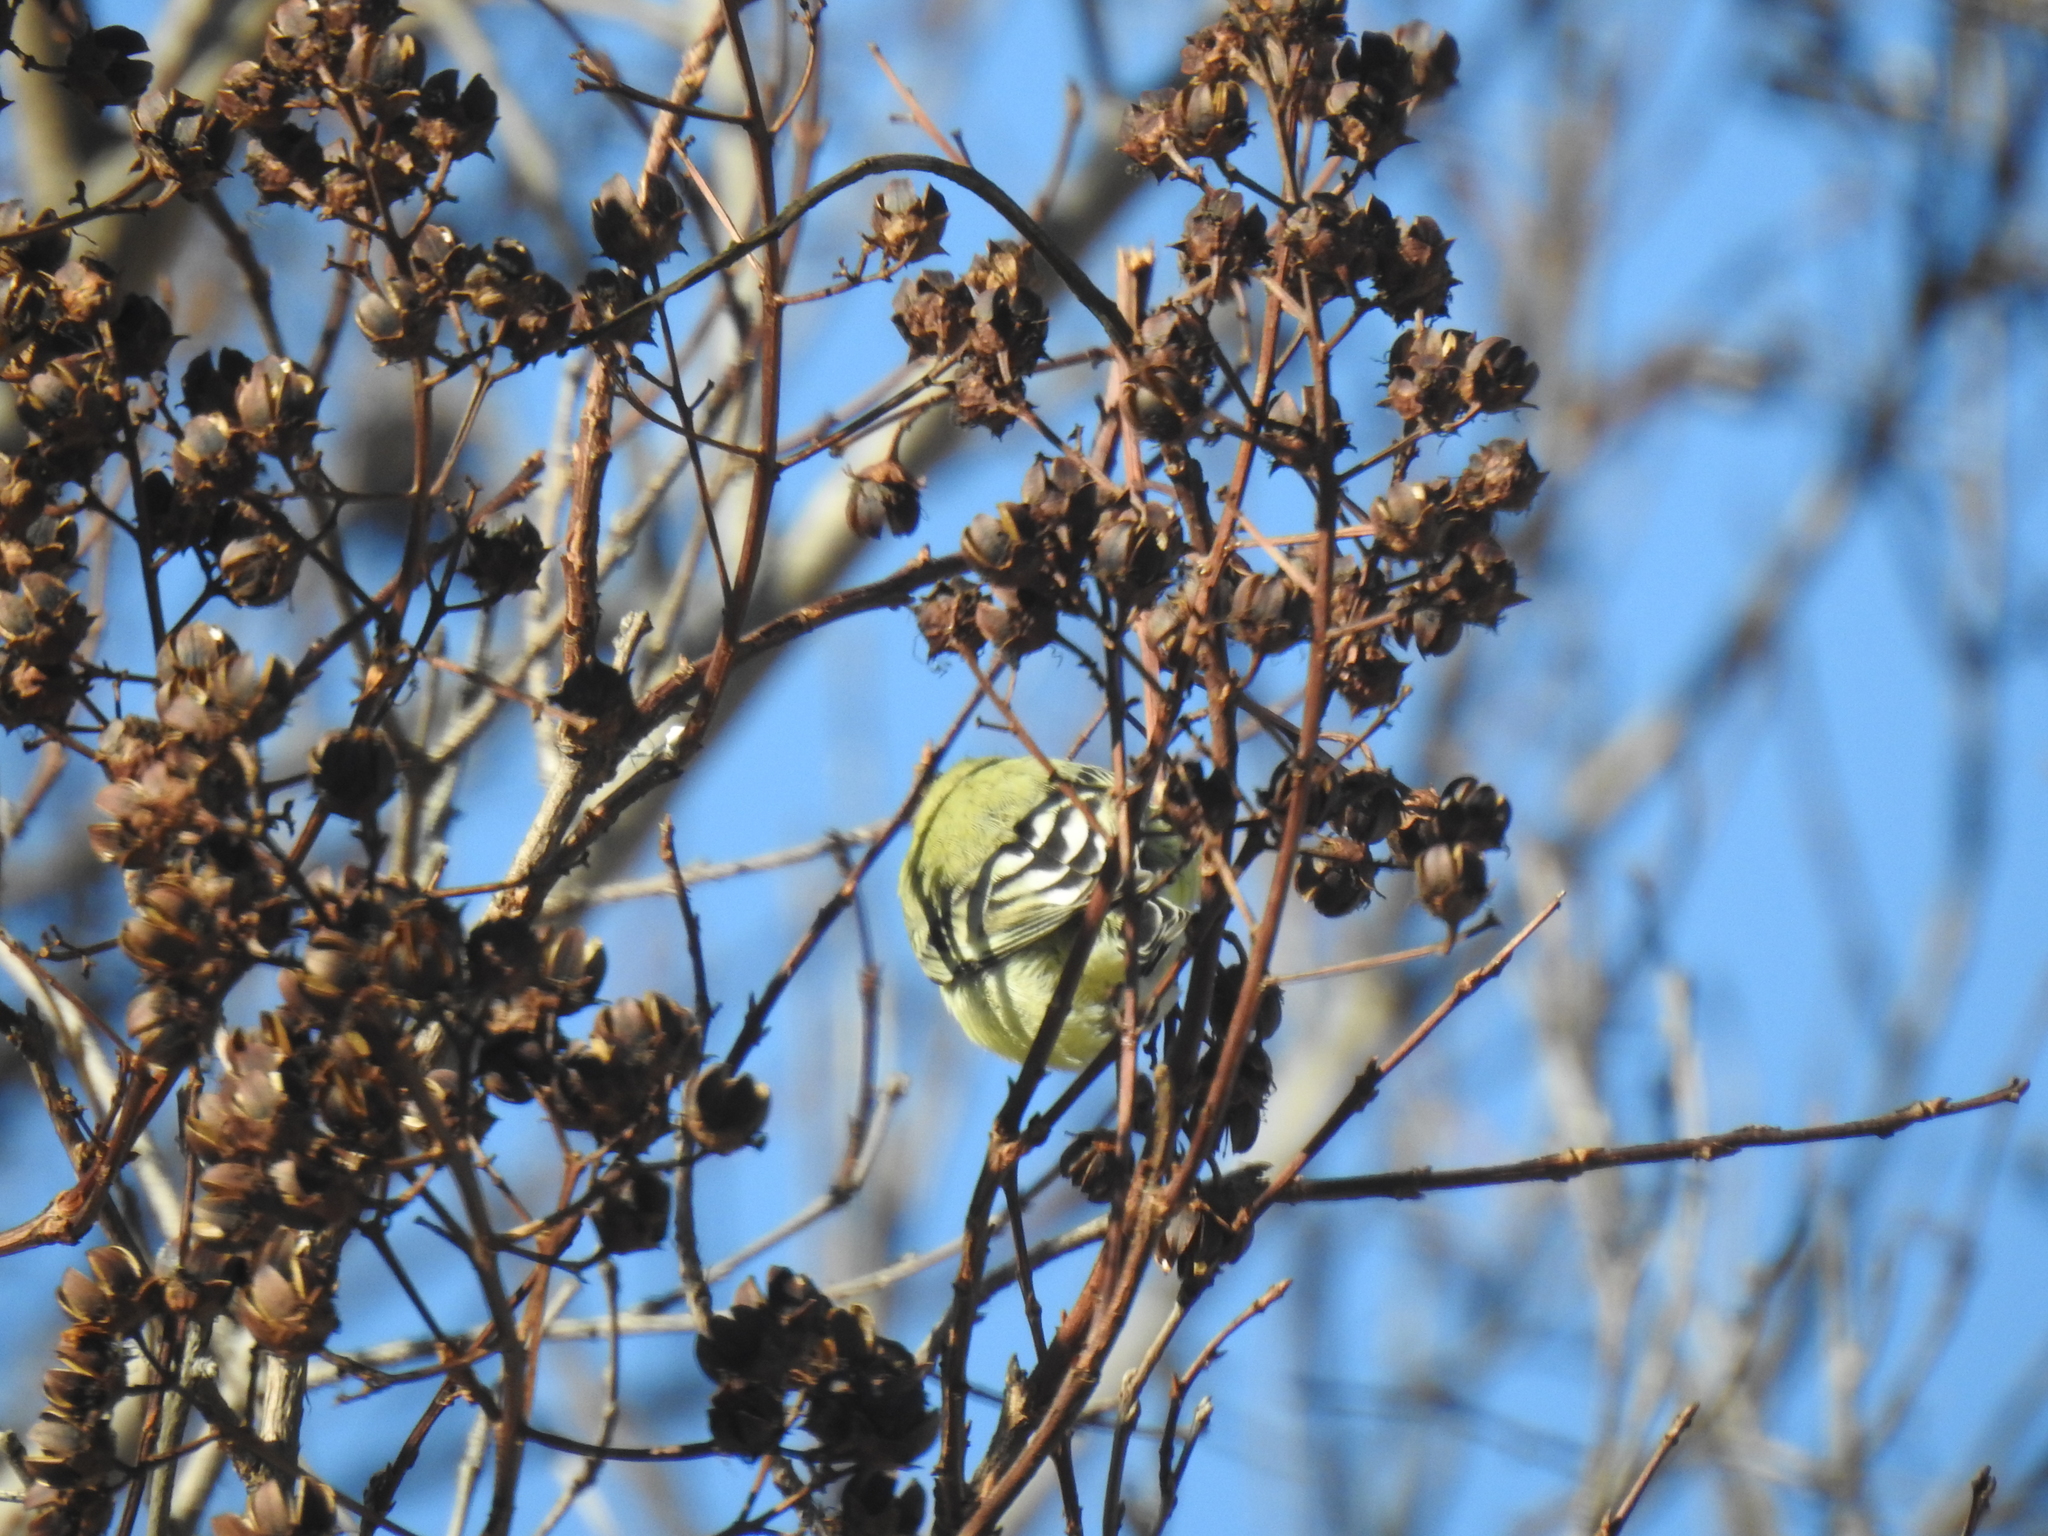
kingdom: Animalia
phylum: Chordata
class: Aves
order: Passeriformes
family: Fringillidae
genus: Spinus
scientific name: Spinus psaltria
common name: Lesser goldfinch
